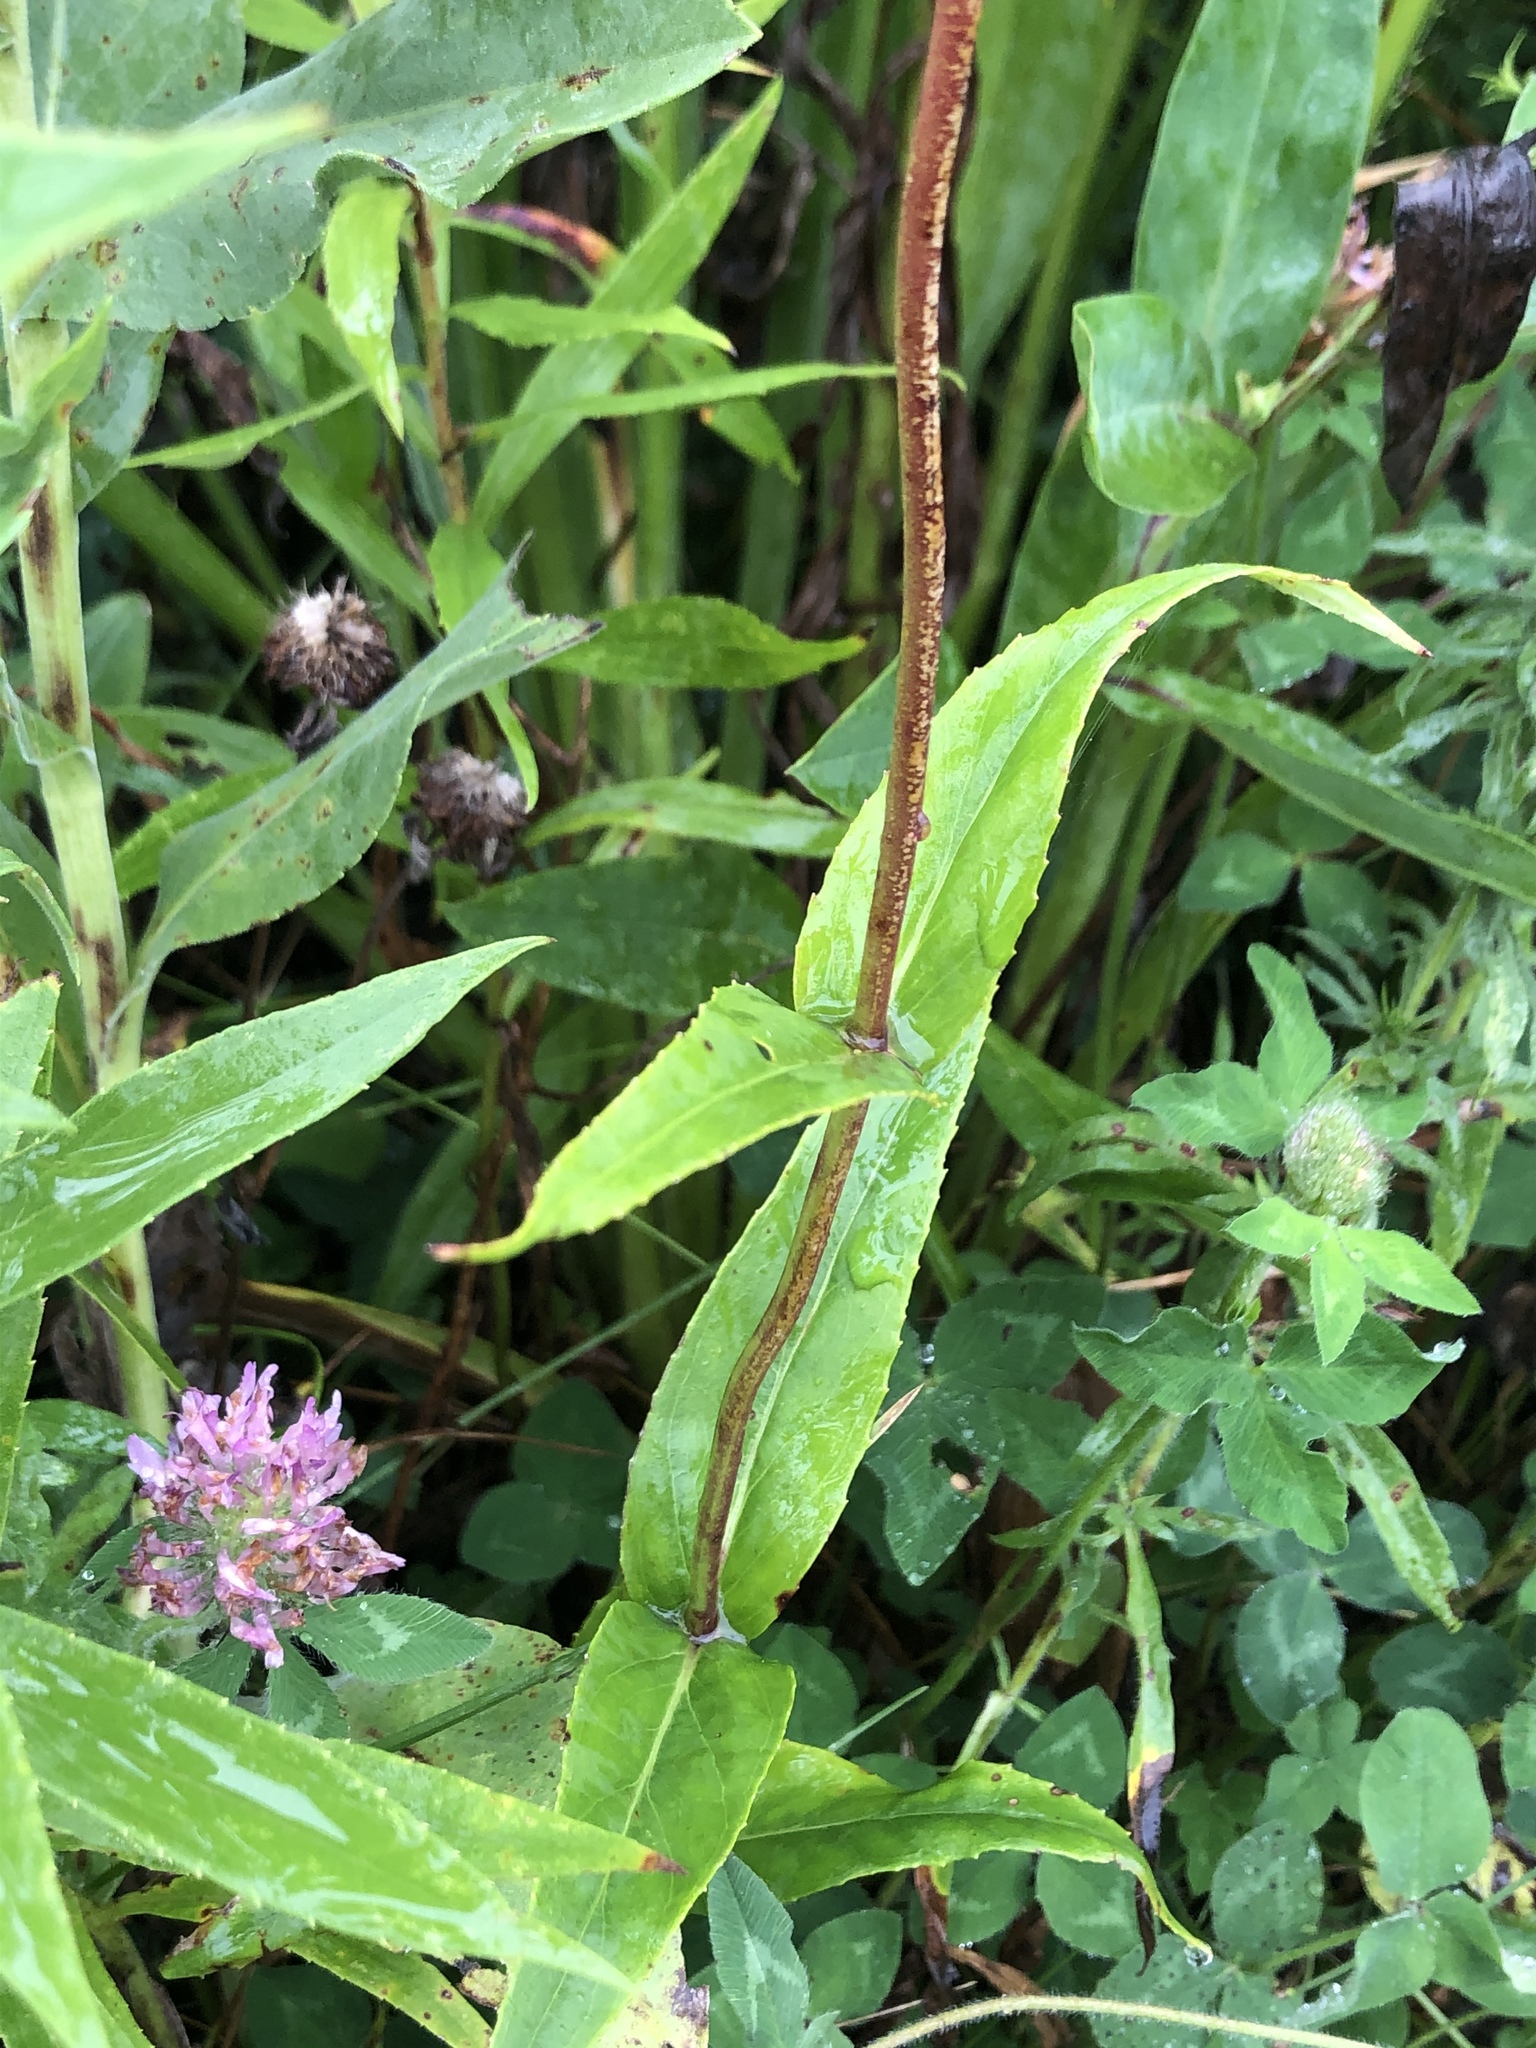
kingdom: Plantae
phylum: Tracheophyta
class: Magnoliopsida
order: Lamiales
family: Plantaginaceae
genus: Penstemon
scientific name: Penstemon digitalis
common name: Foxglove beardtongue
